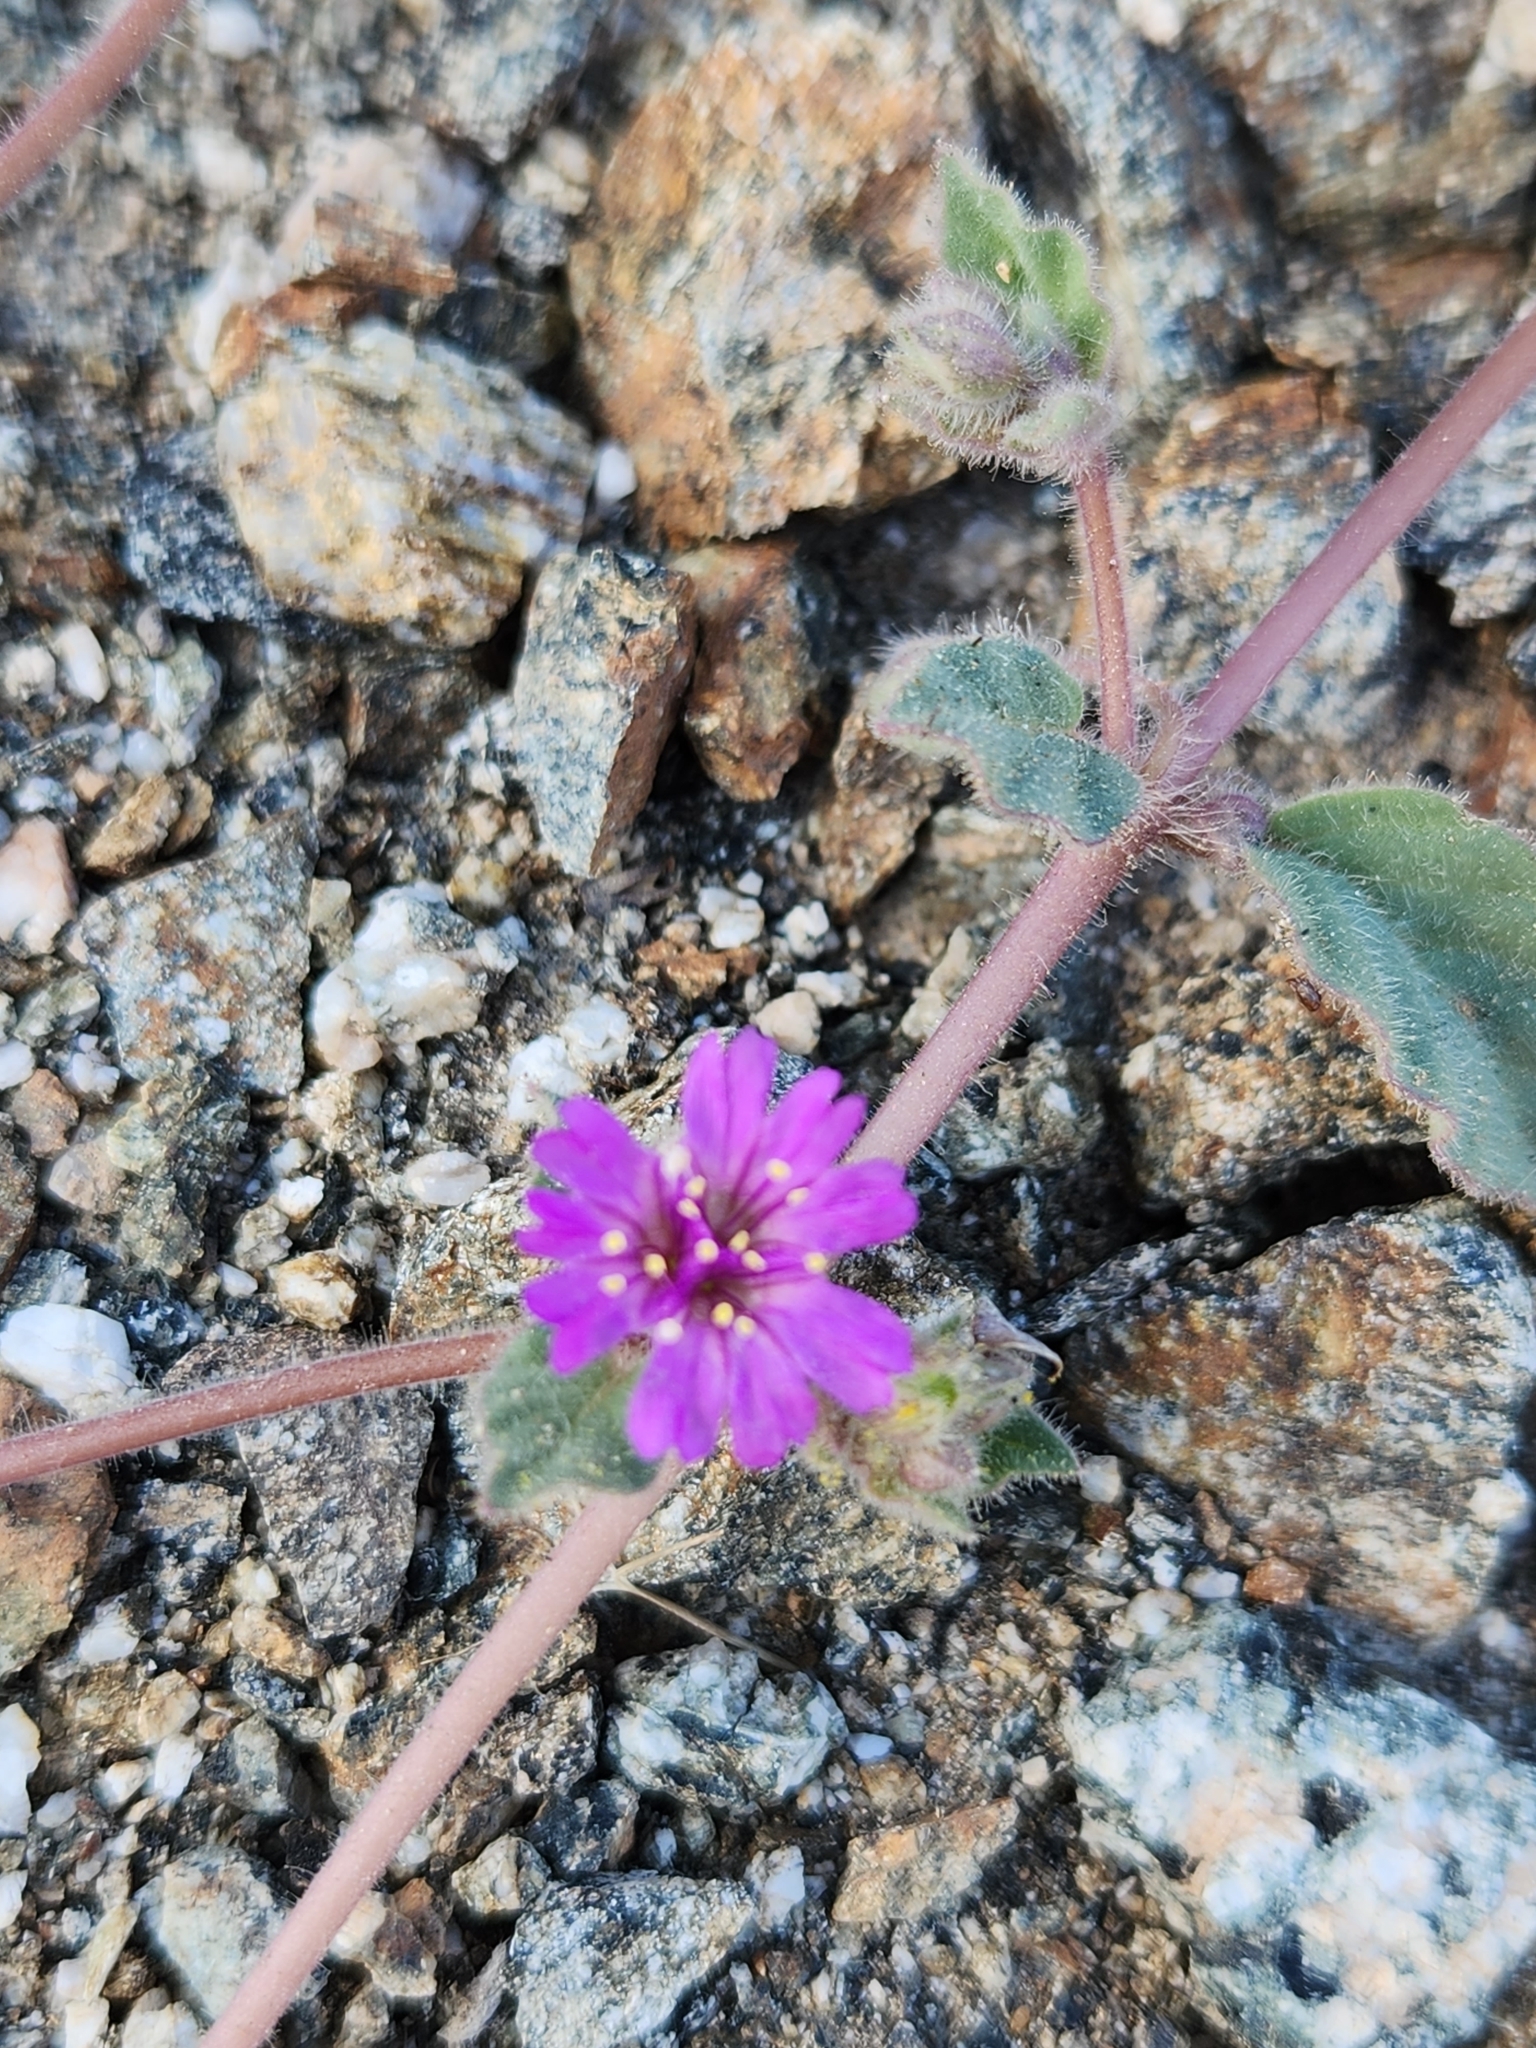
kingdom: Plantae
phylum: Tracheophyta
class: Magnoliopsida
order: Caryophyllales
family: Nyctaginaceae
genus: Allionia
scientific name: Allionia incarnata
